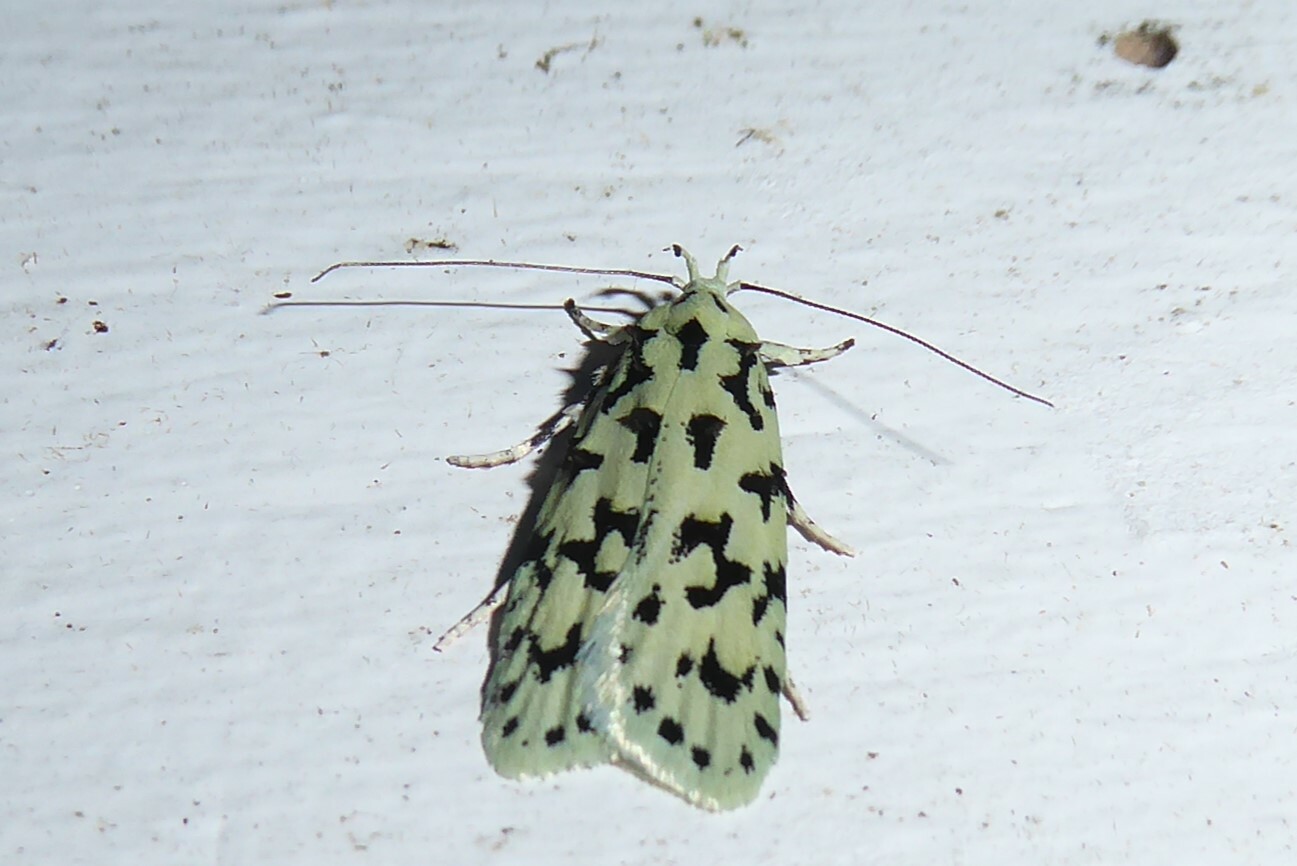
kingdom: Animalia
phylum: Arthropoda
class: Insecta
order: Lepidoptera
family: Oecophoridae
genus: Izatha
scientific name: Izatha huttoni
